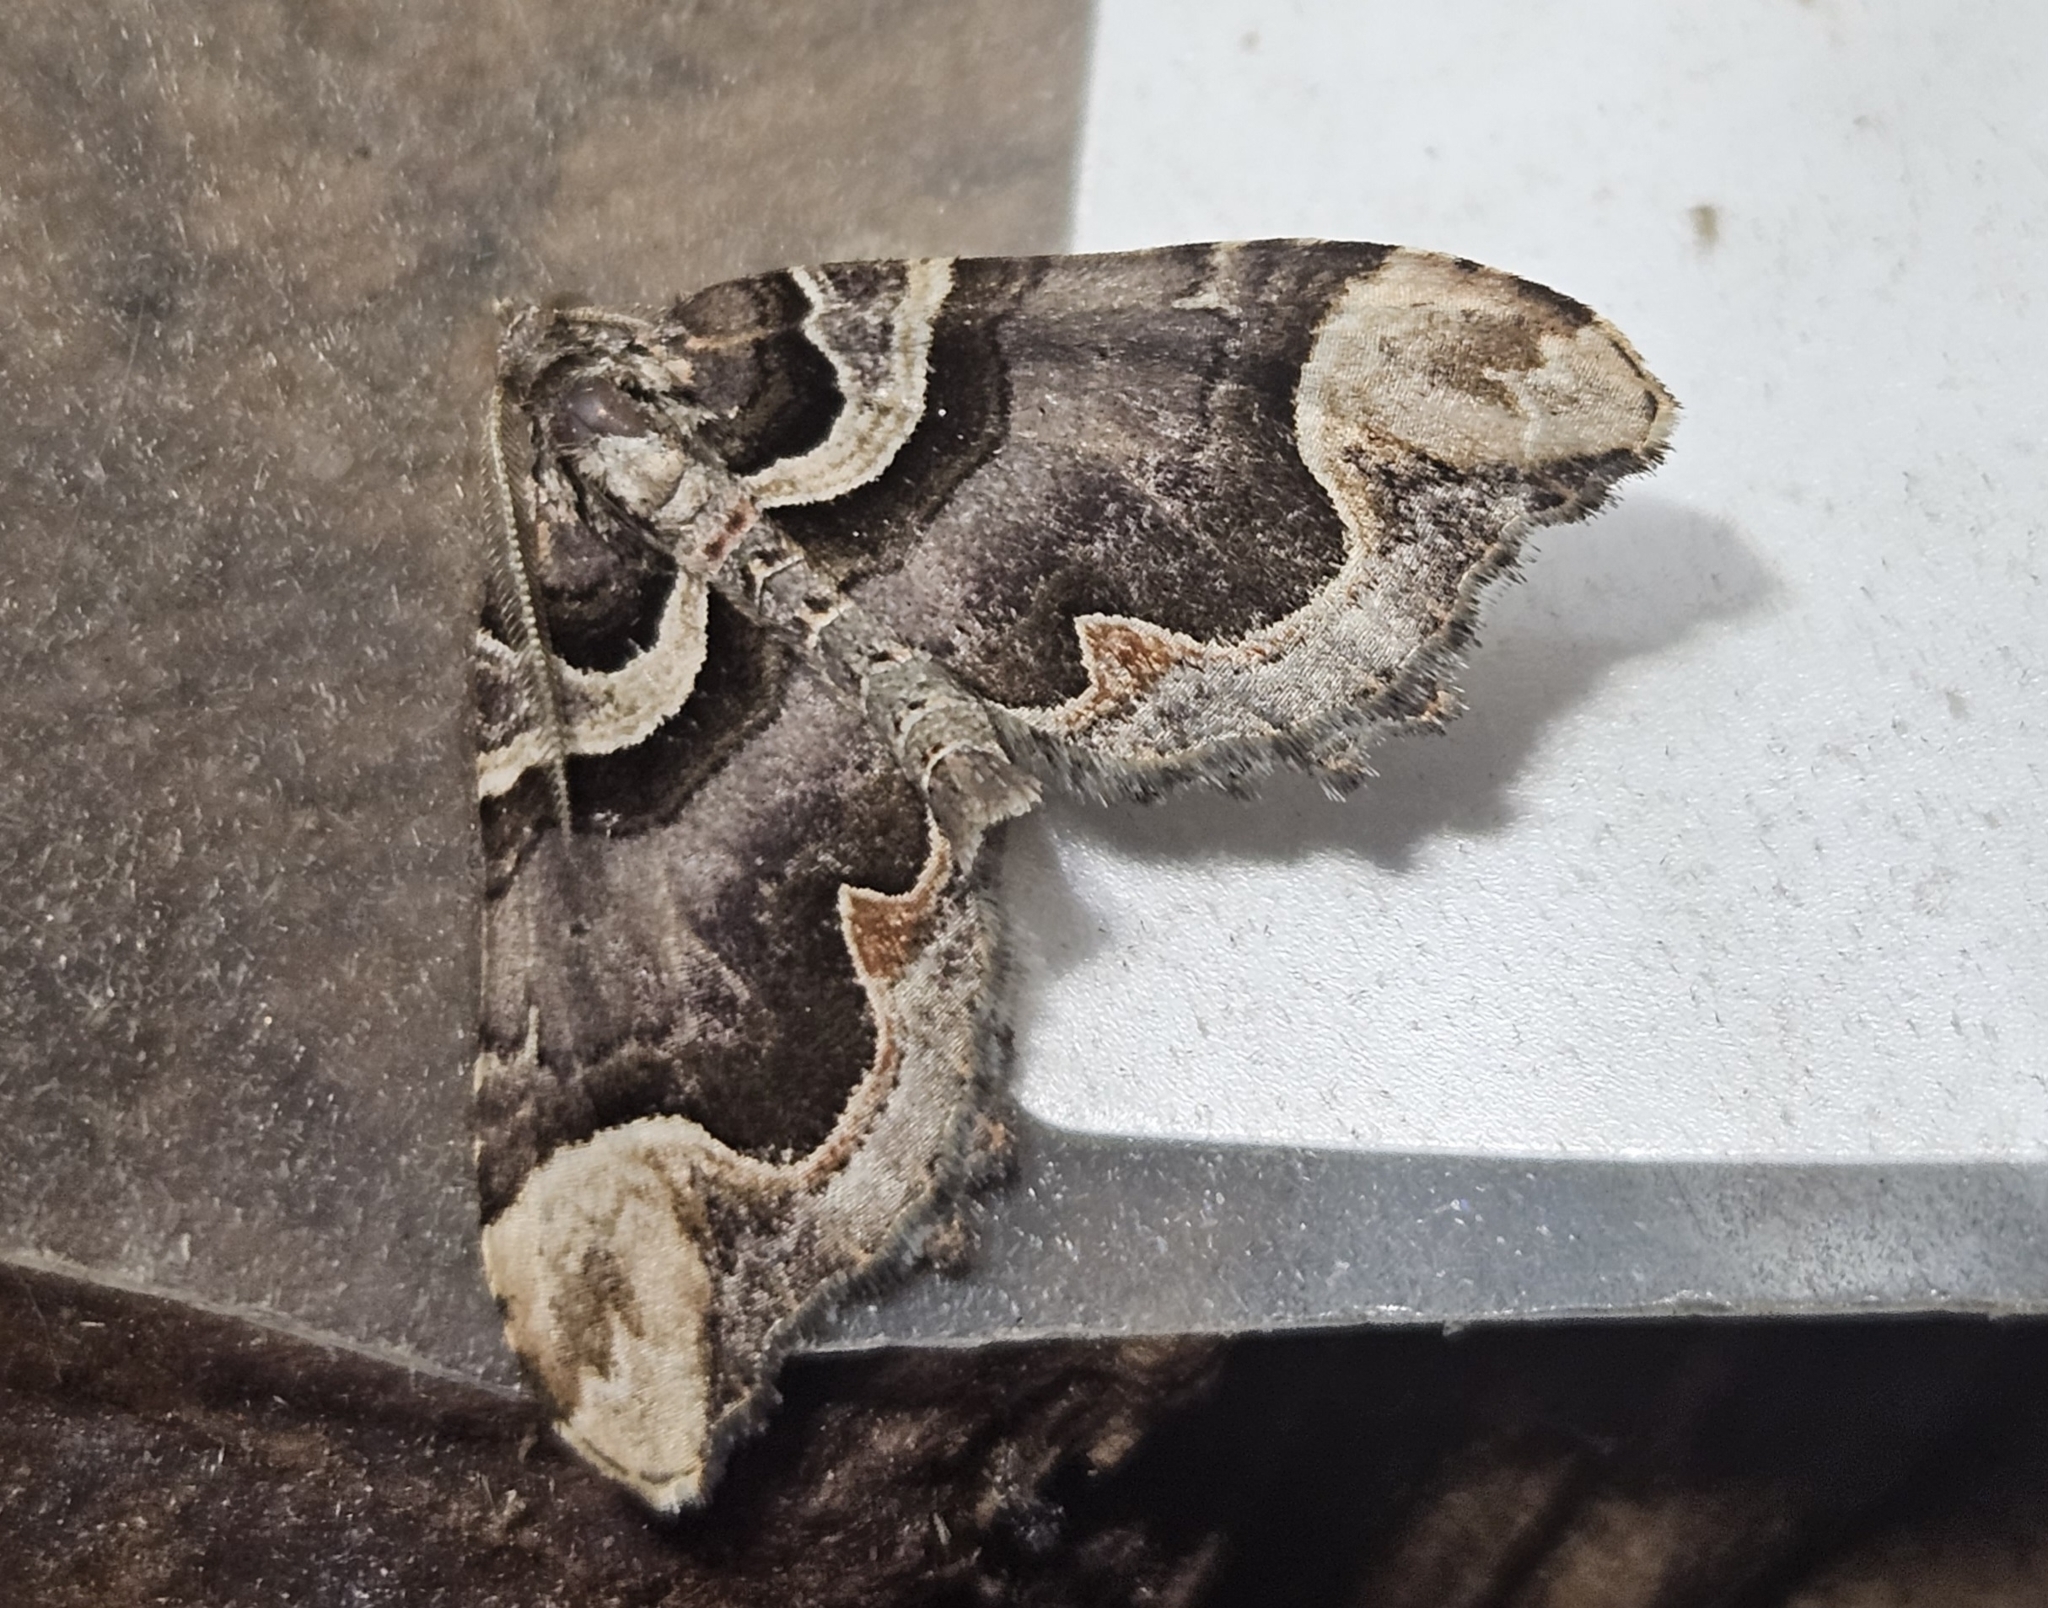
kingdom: Animalia
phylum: Arthropoda
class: Insecta
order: Lepidoptera
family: Geometridae
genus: Asaphodes
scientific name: Asaphodes chlamydota
